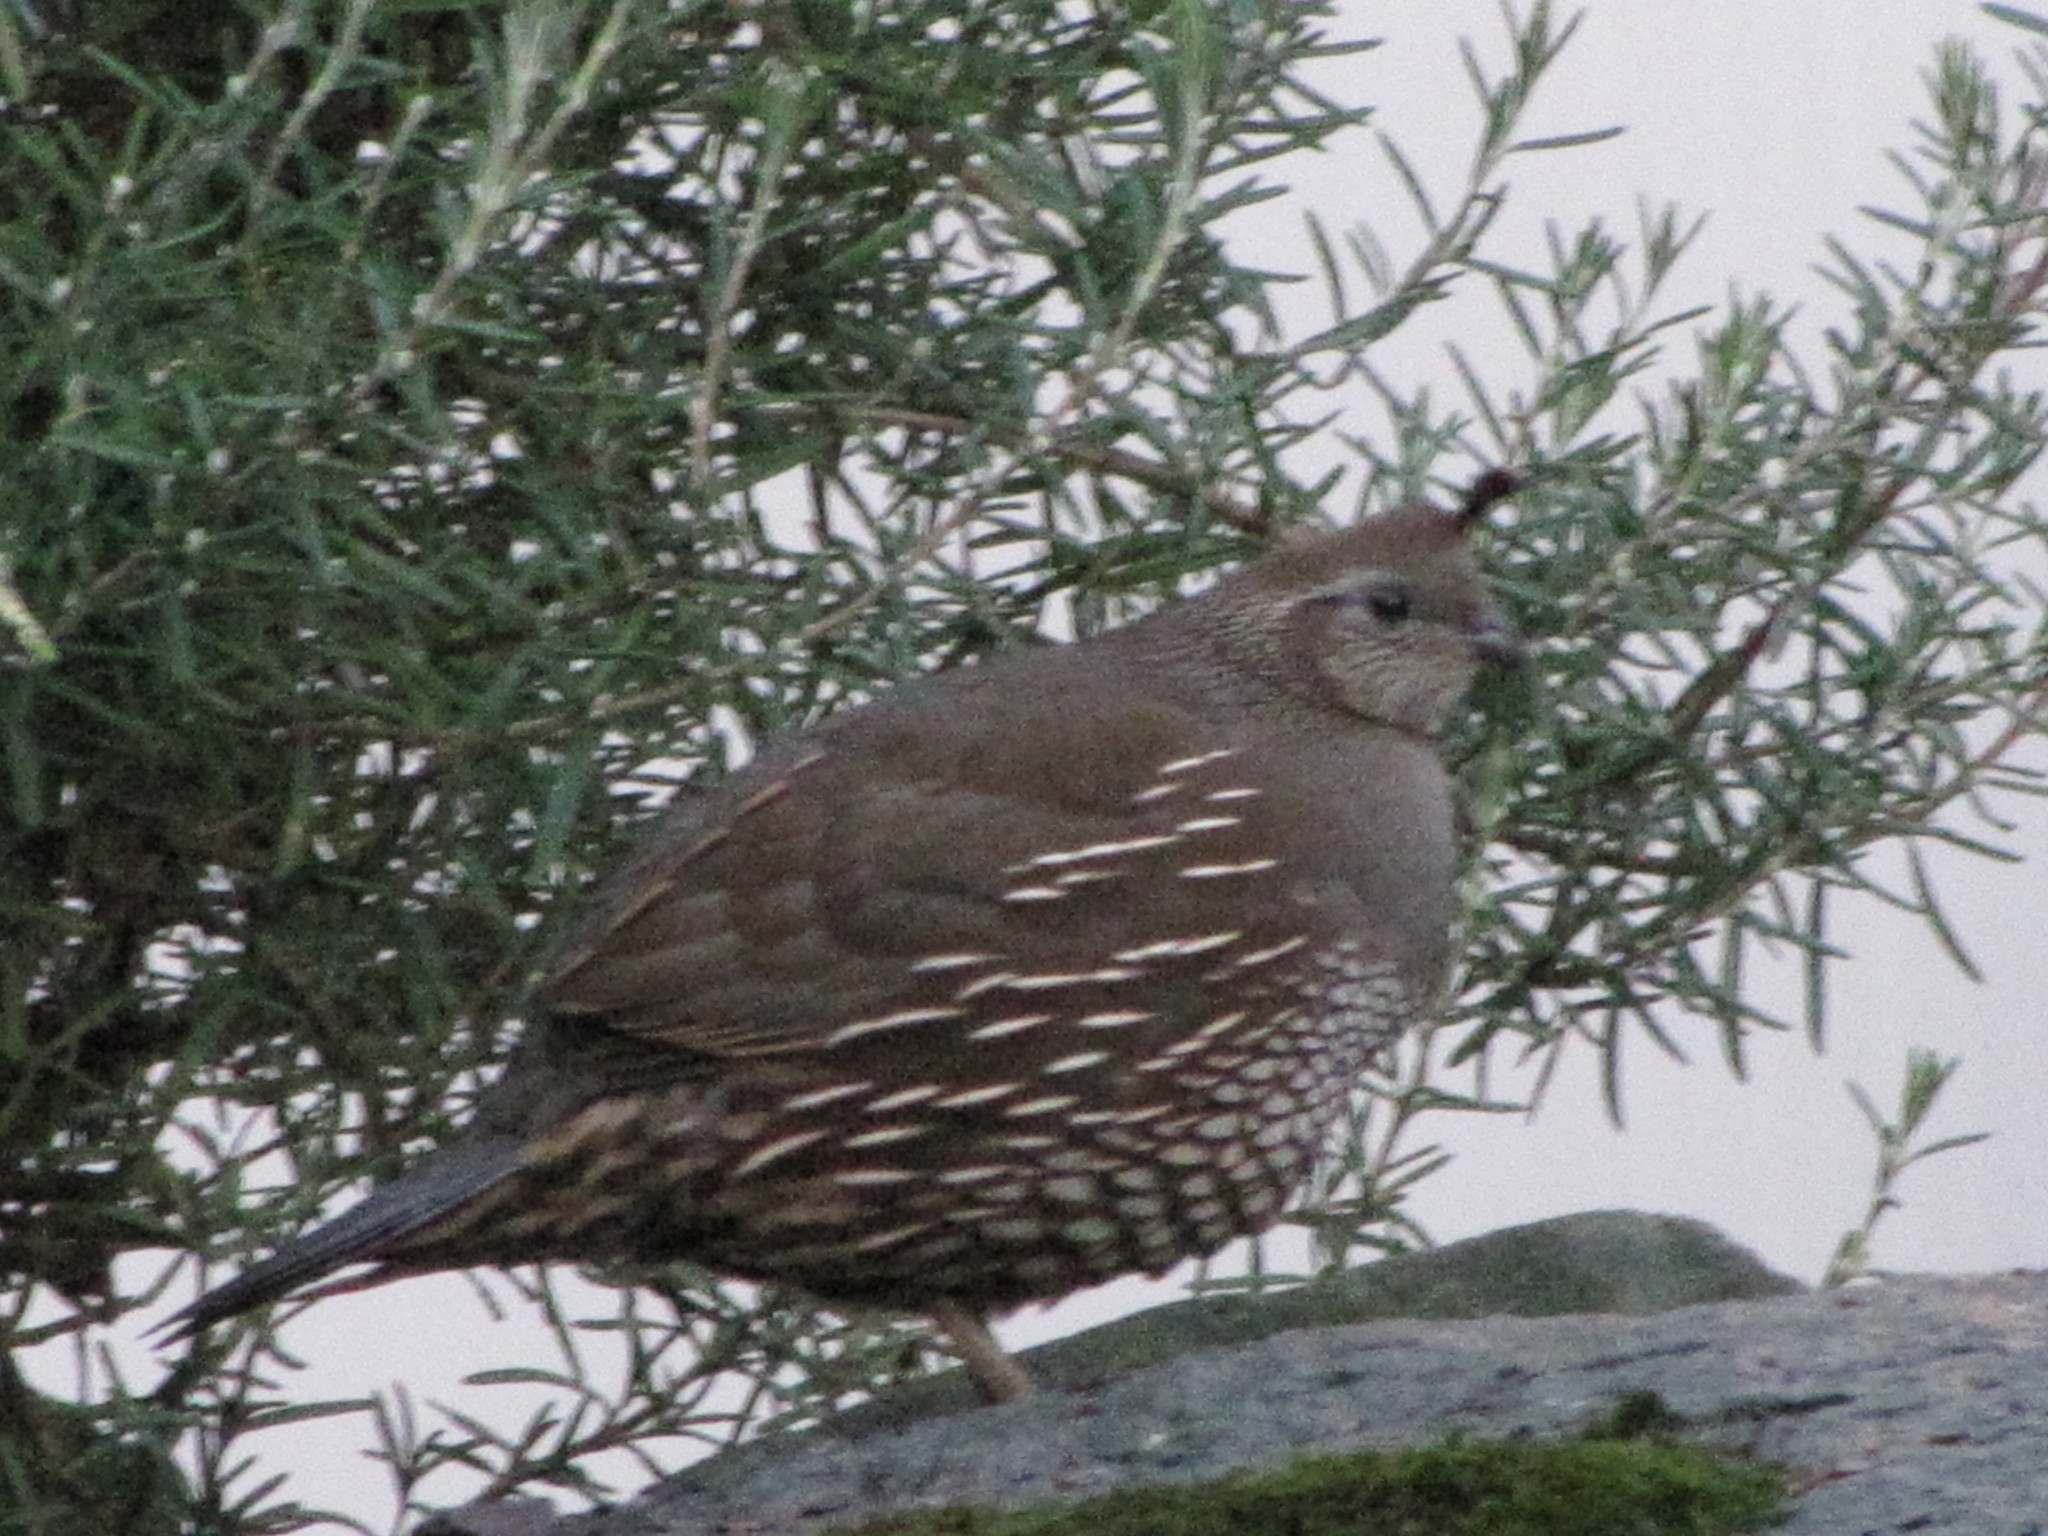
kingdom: Animalia
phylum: Chordata
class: Aves
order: Galliformes
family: Odontophoridae
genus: Callipepla
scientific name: Callipepla californica
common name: California quail
